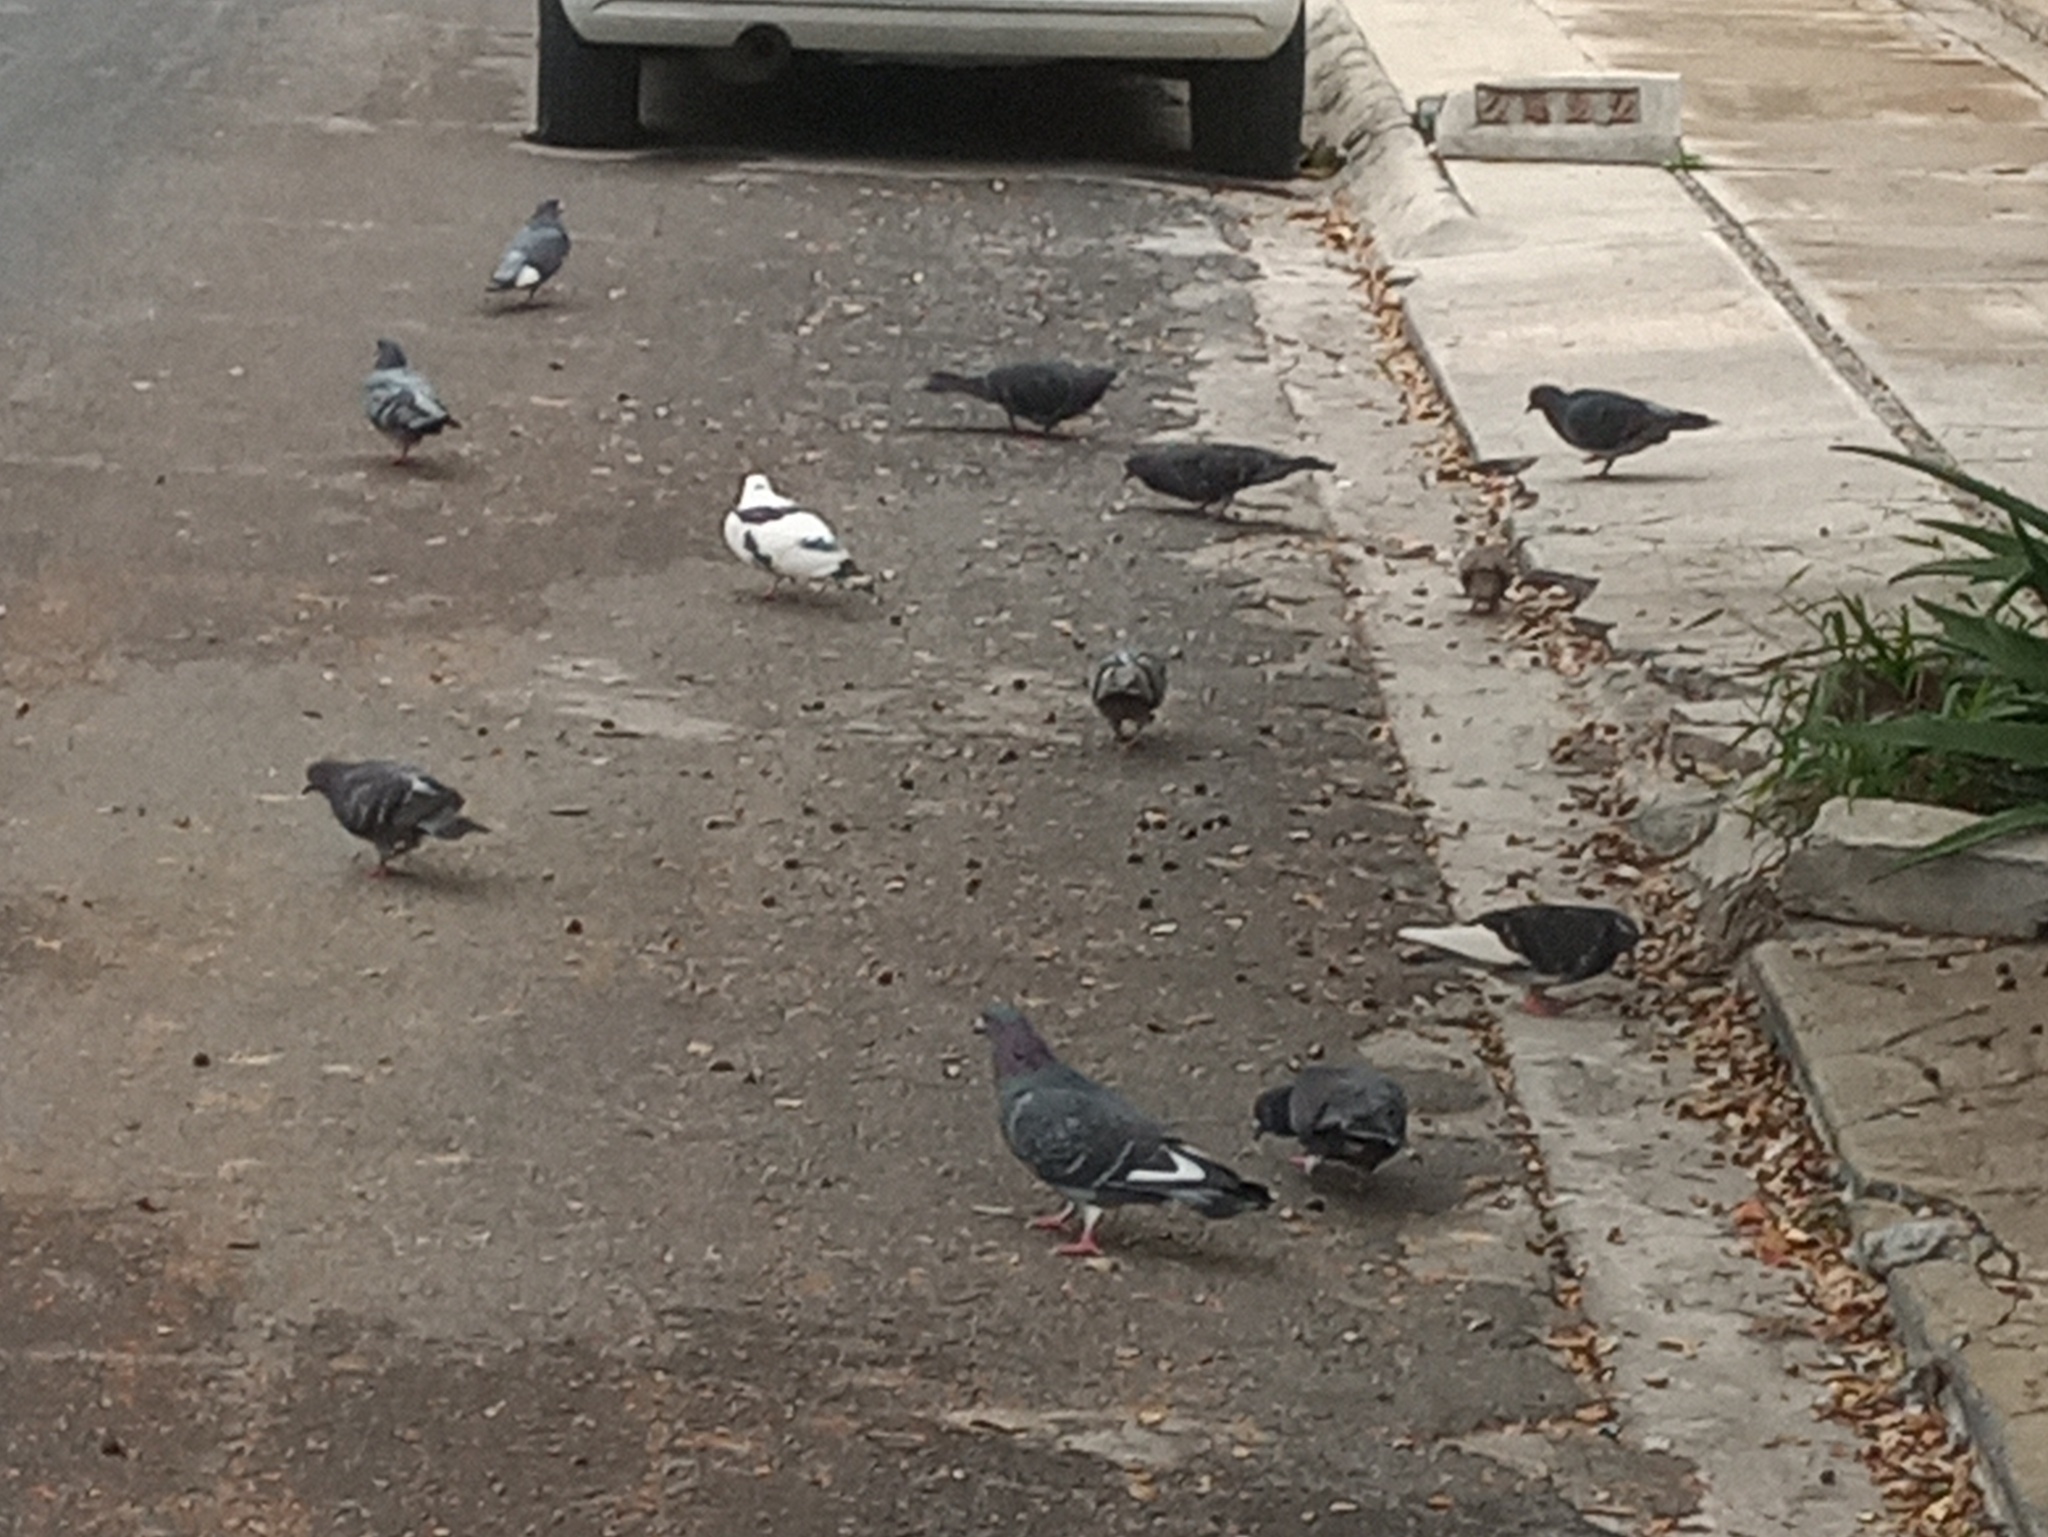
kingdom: Animalia
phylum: Chordata
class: Aves
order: Columbiformes
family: Columbidae
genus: Columba
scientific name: Columba livia
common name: Rock pigeon
